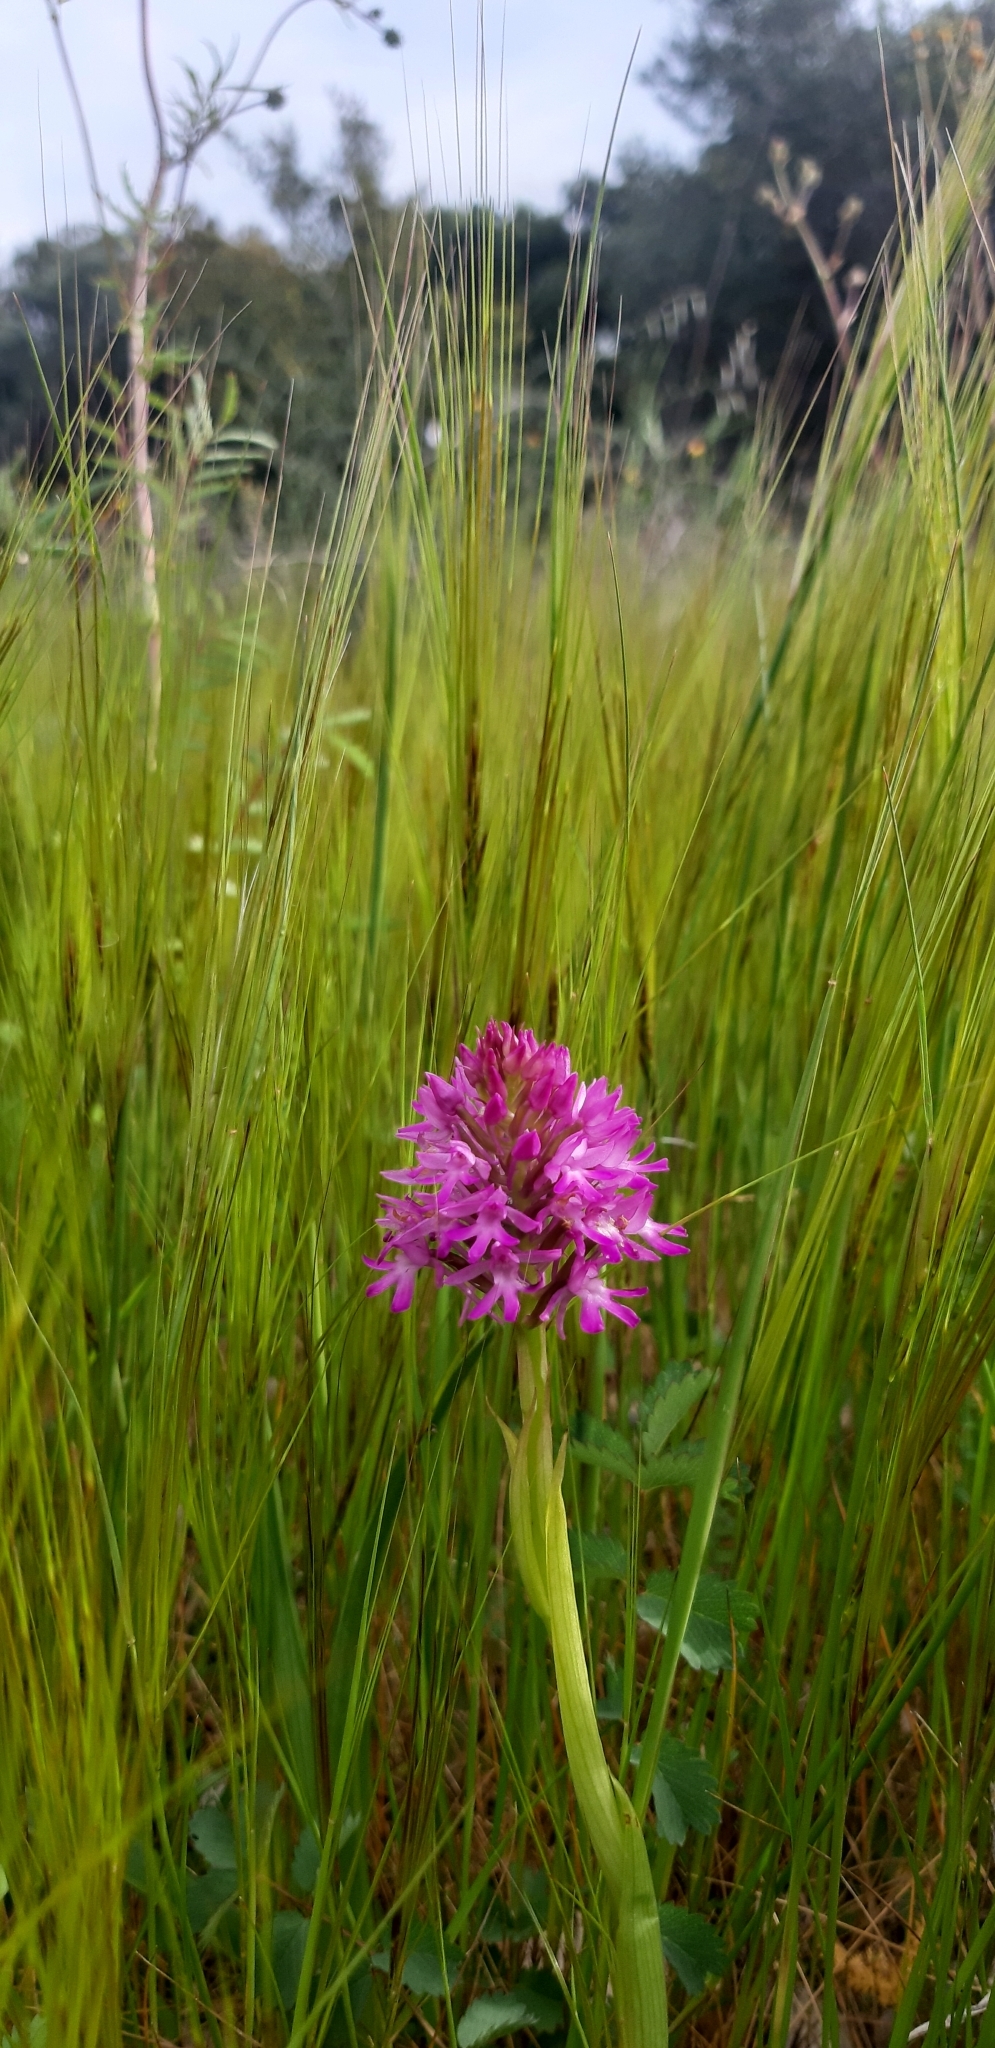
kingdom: Plantae
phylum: Tracheophyta
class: Liliopsida
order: Asparagales
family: Orchidaceae
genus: Anacamptis
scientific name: Anacamptis pyramidalis
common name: Pyramidal orchid
